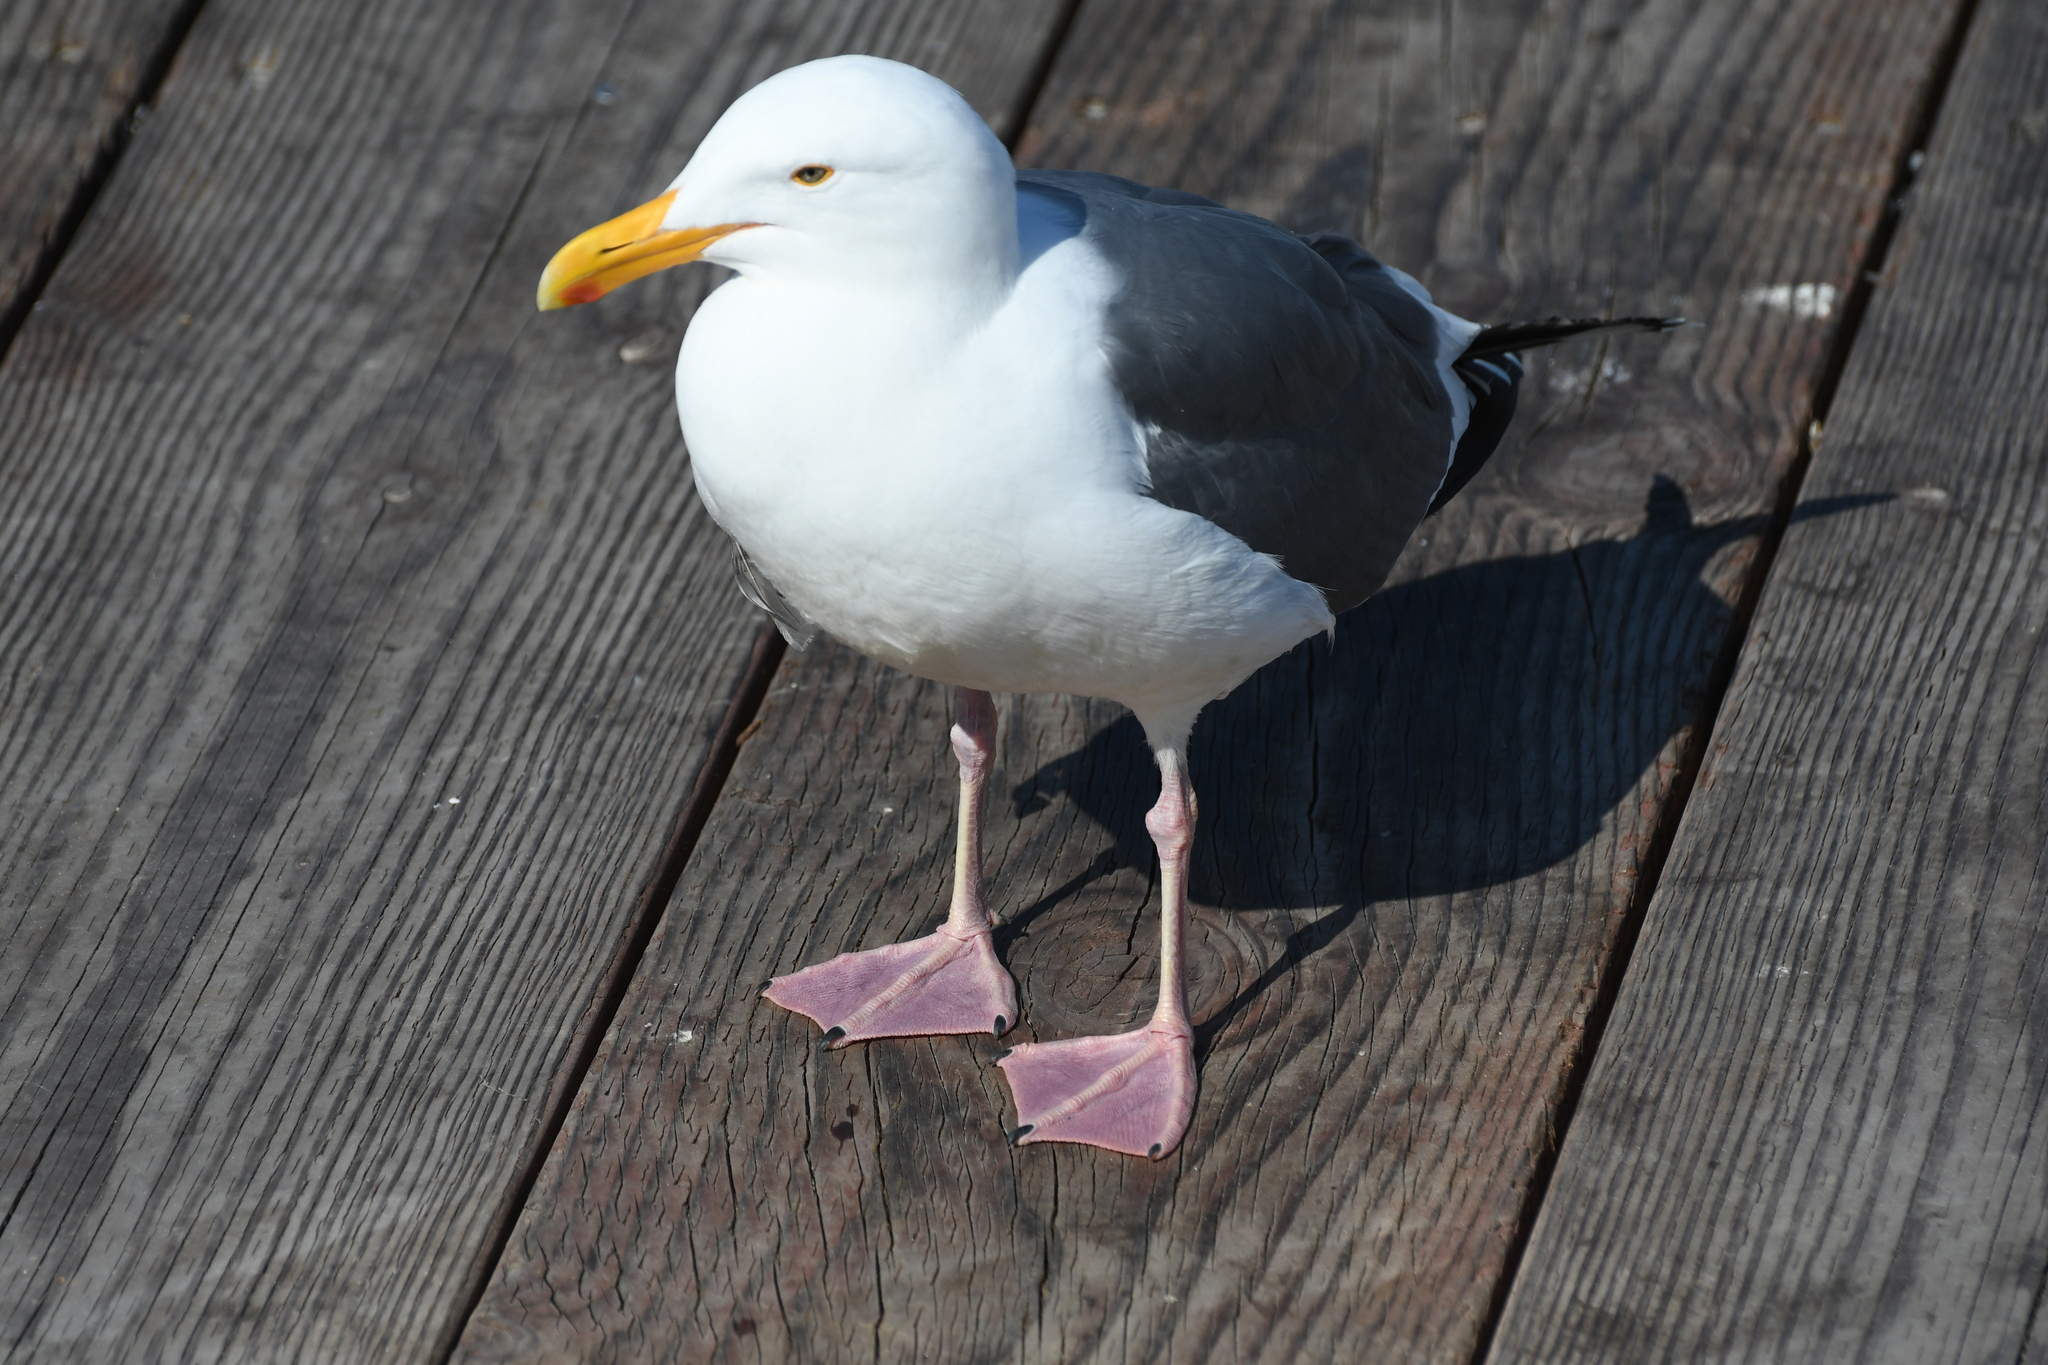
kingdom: Animalia
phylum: Chordata
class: Aves
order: Charadriiformes
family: Laridae
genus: Larus
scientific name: Larus occidentalis
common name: Western gull
